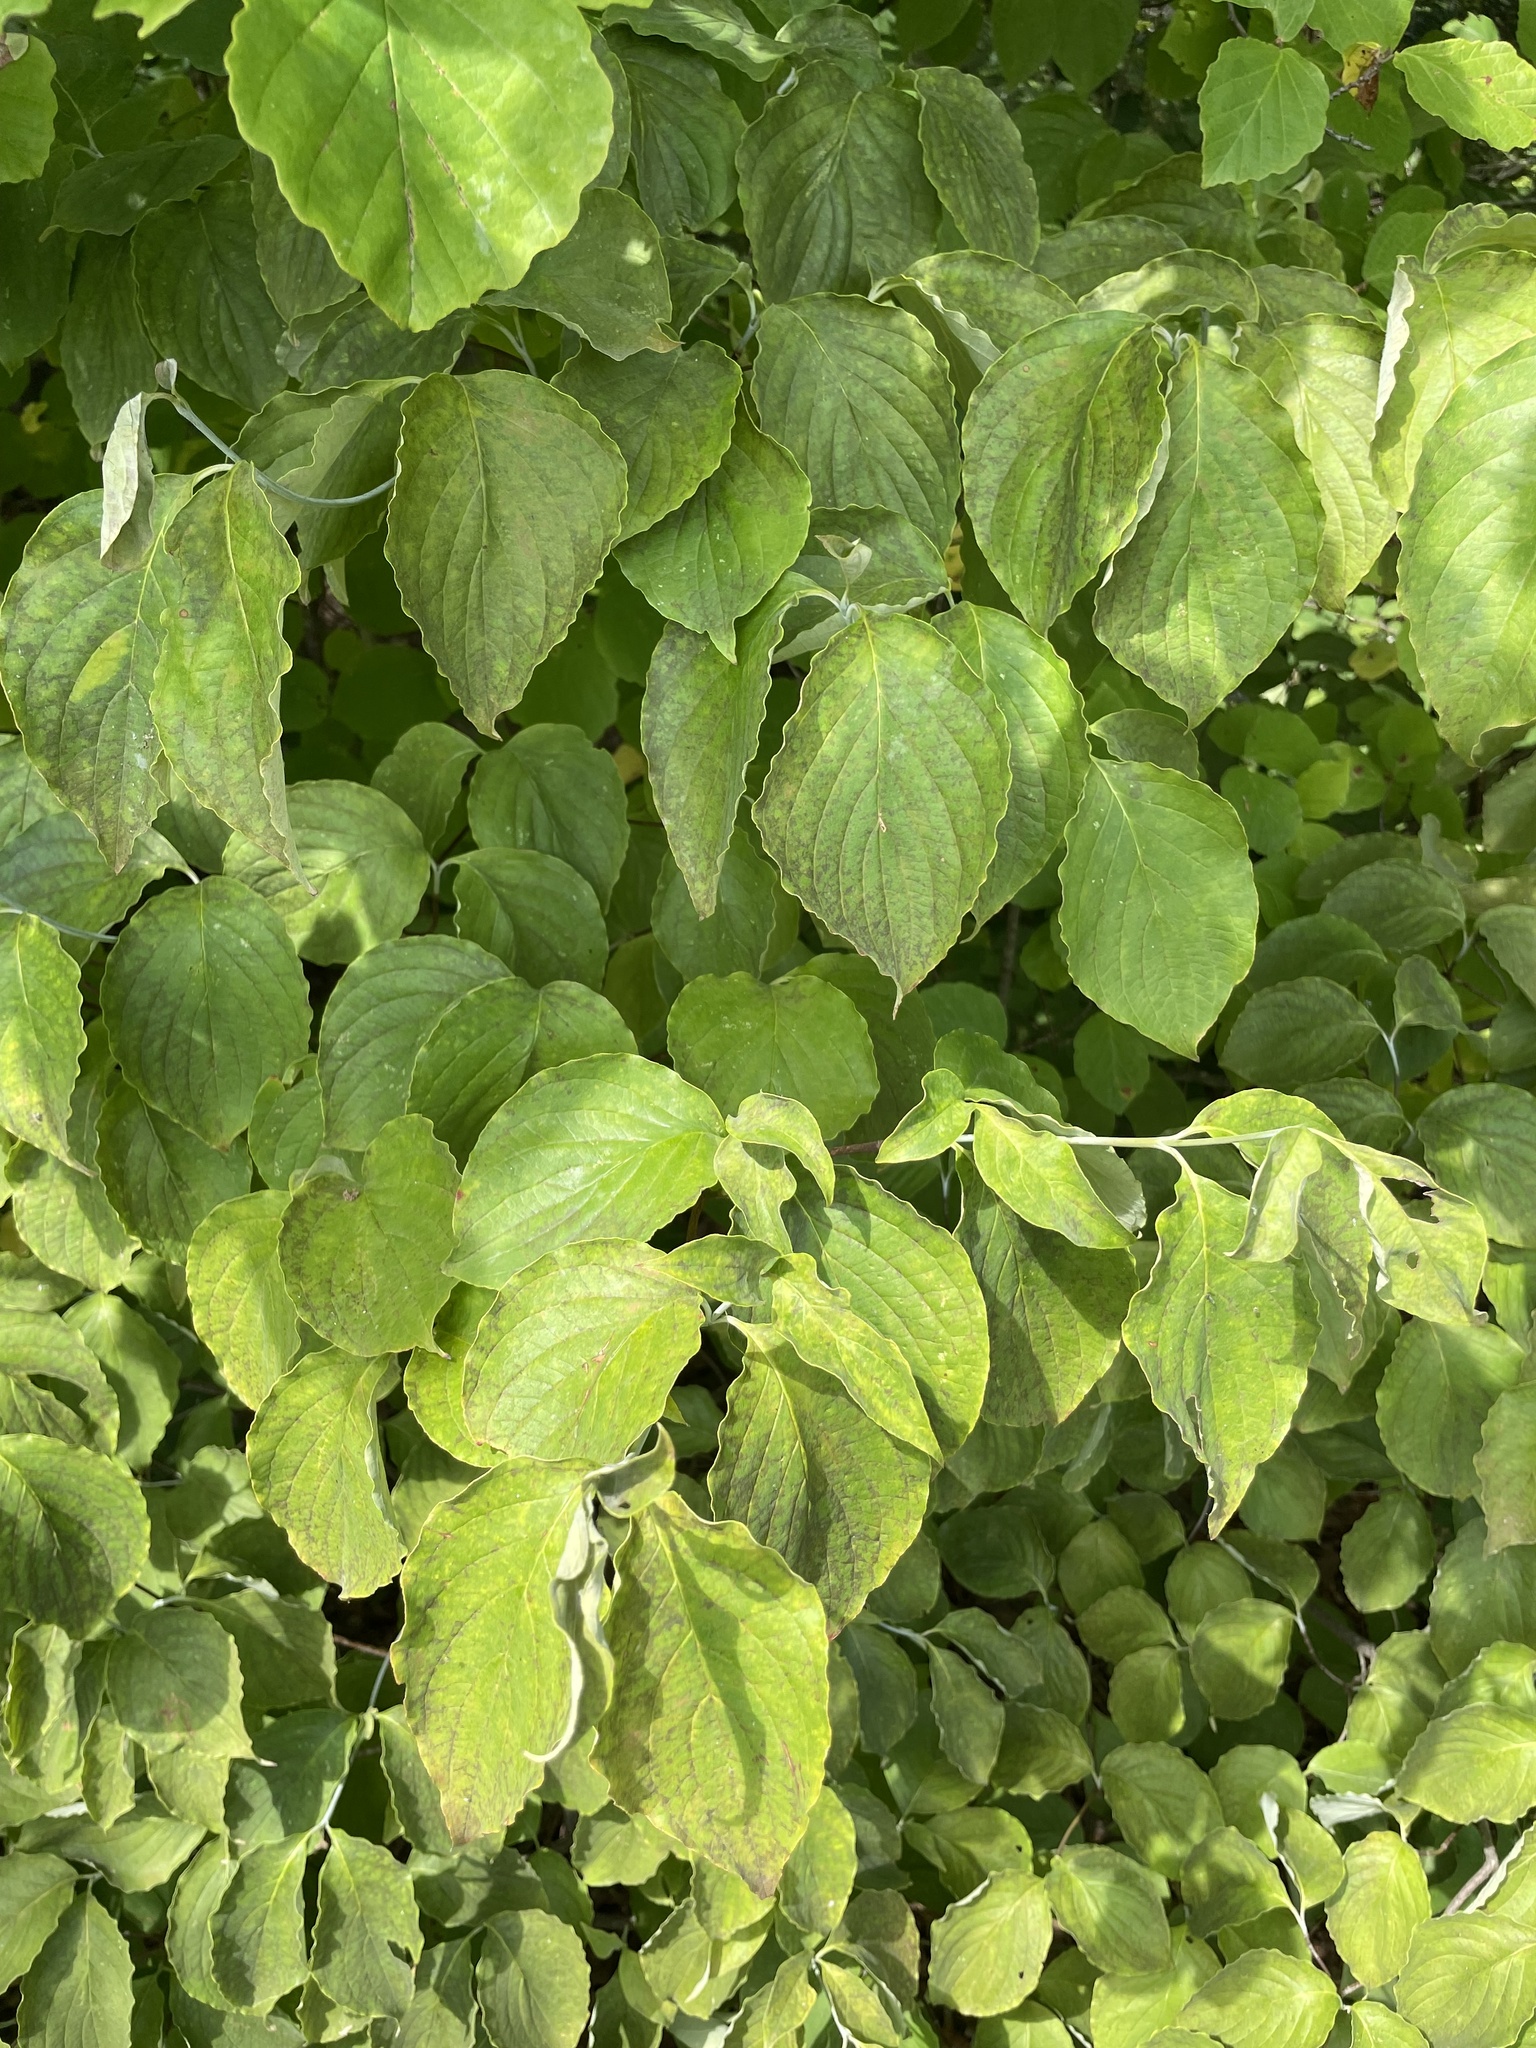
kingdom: Plantae
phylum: Tracheophyta
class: Magnoliopsida
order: Cornales
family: Cornaceae
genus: Cornus
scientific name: Cornus florida
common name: Flowering dogwood
